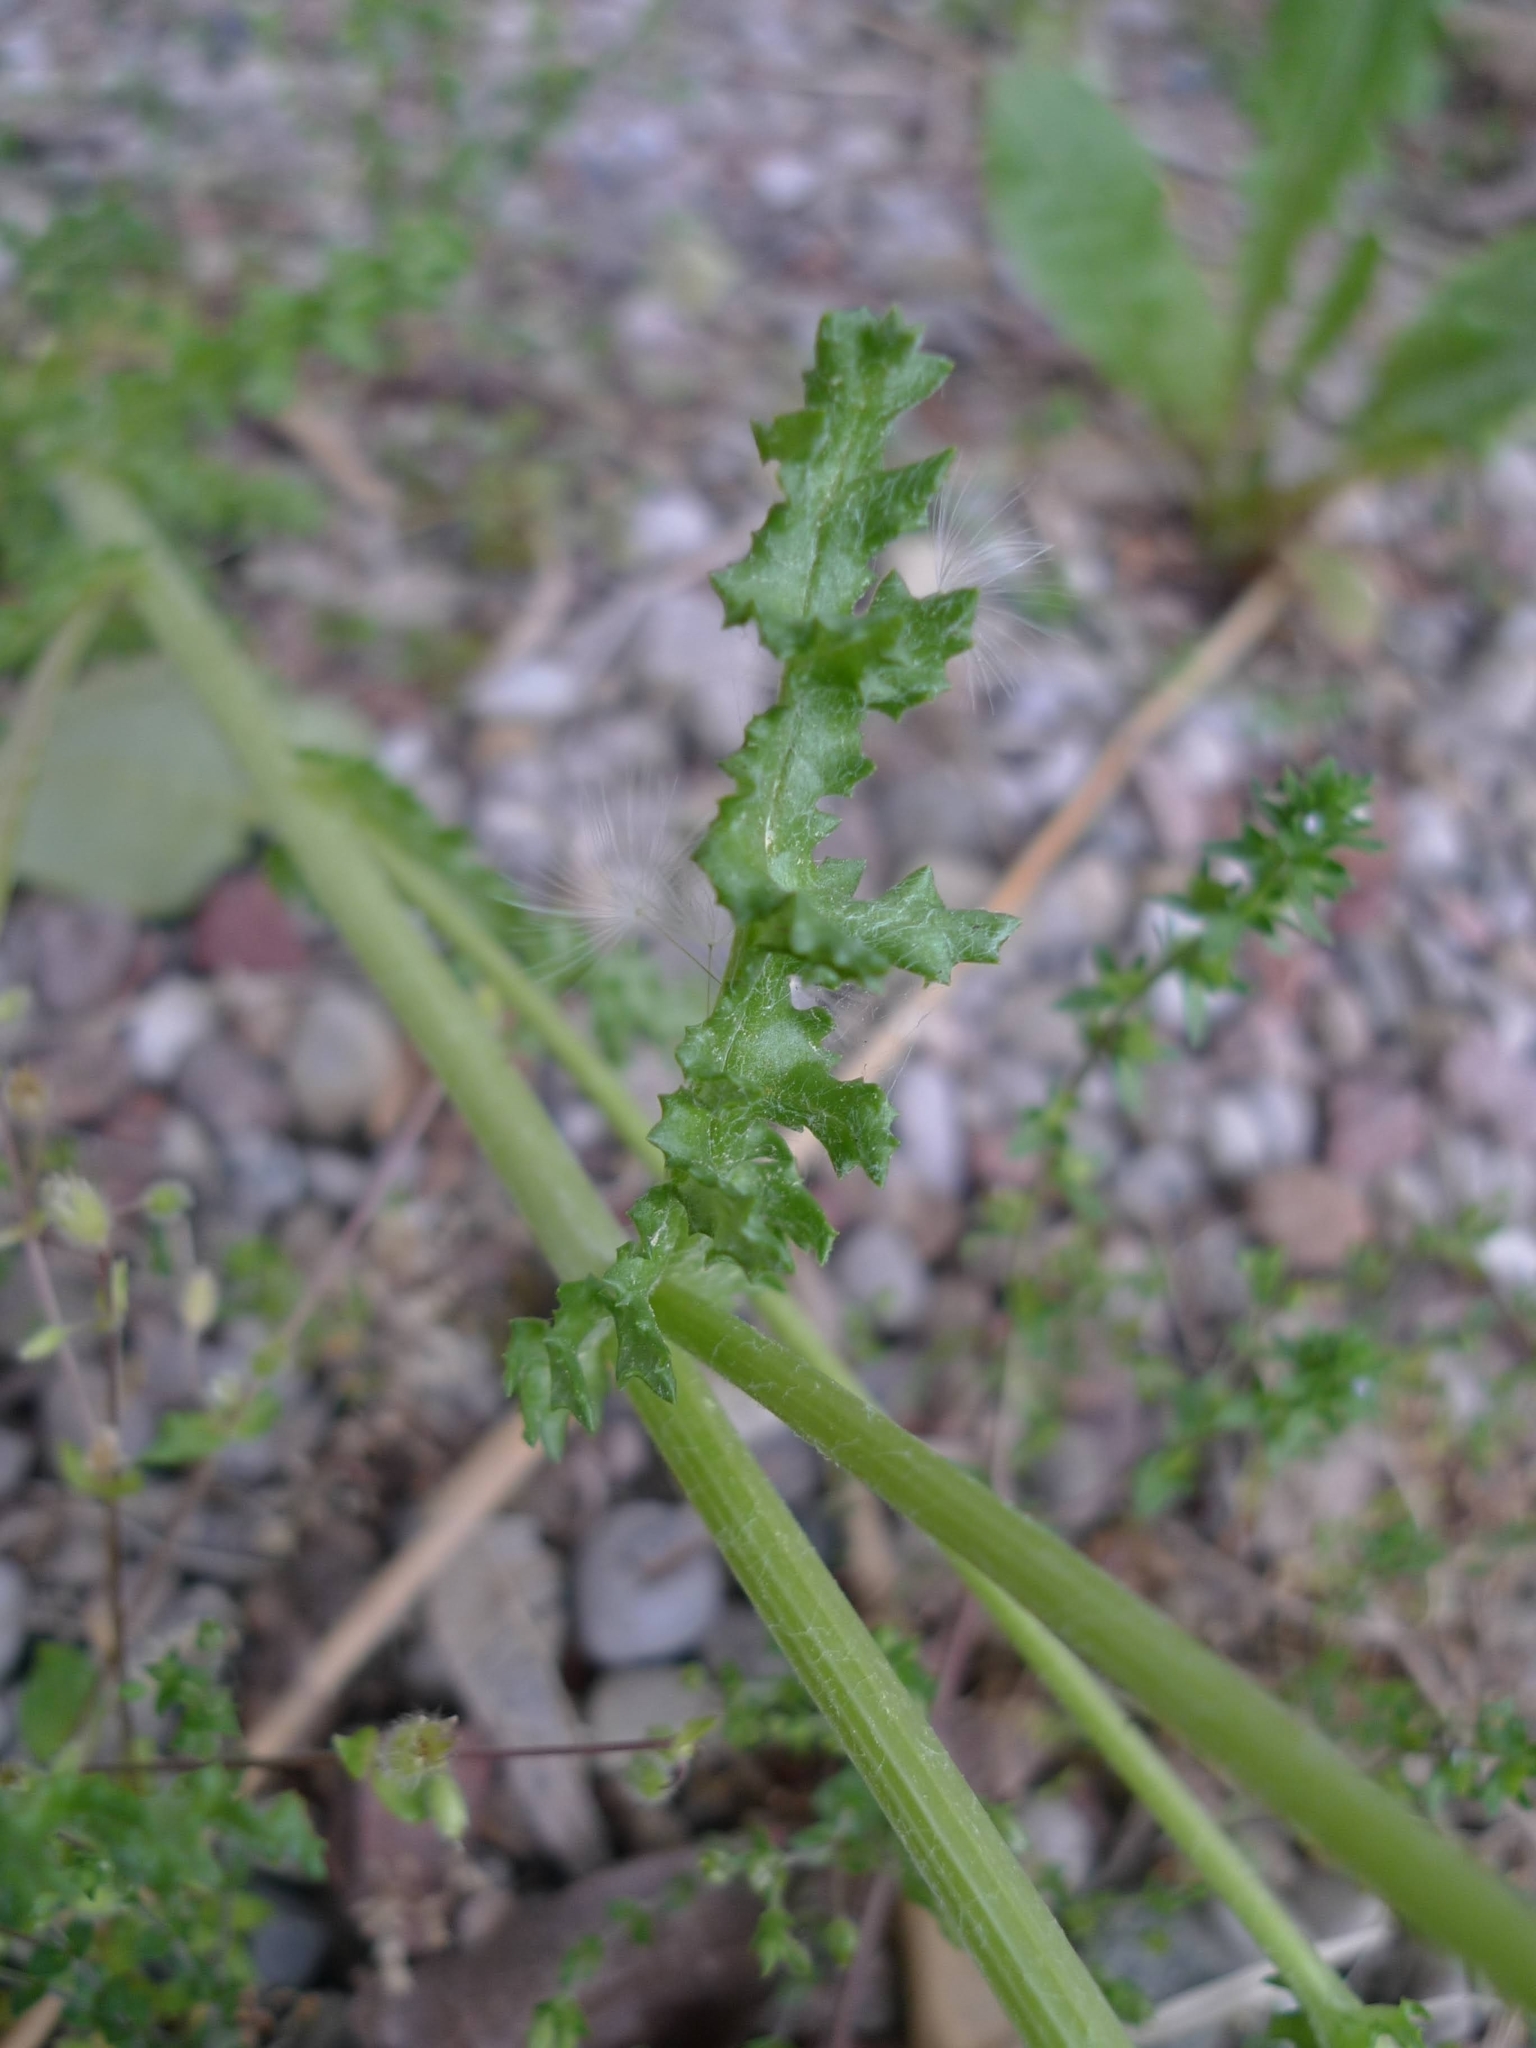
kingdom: Plantae
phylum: Tracheophyta
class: Magnoliopsida
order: Asterales
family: Asteraceae
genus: Senecio
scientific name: Senecio vernalis
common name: Eastern groundsel
